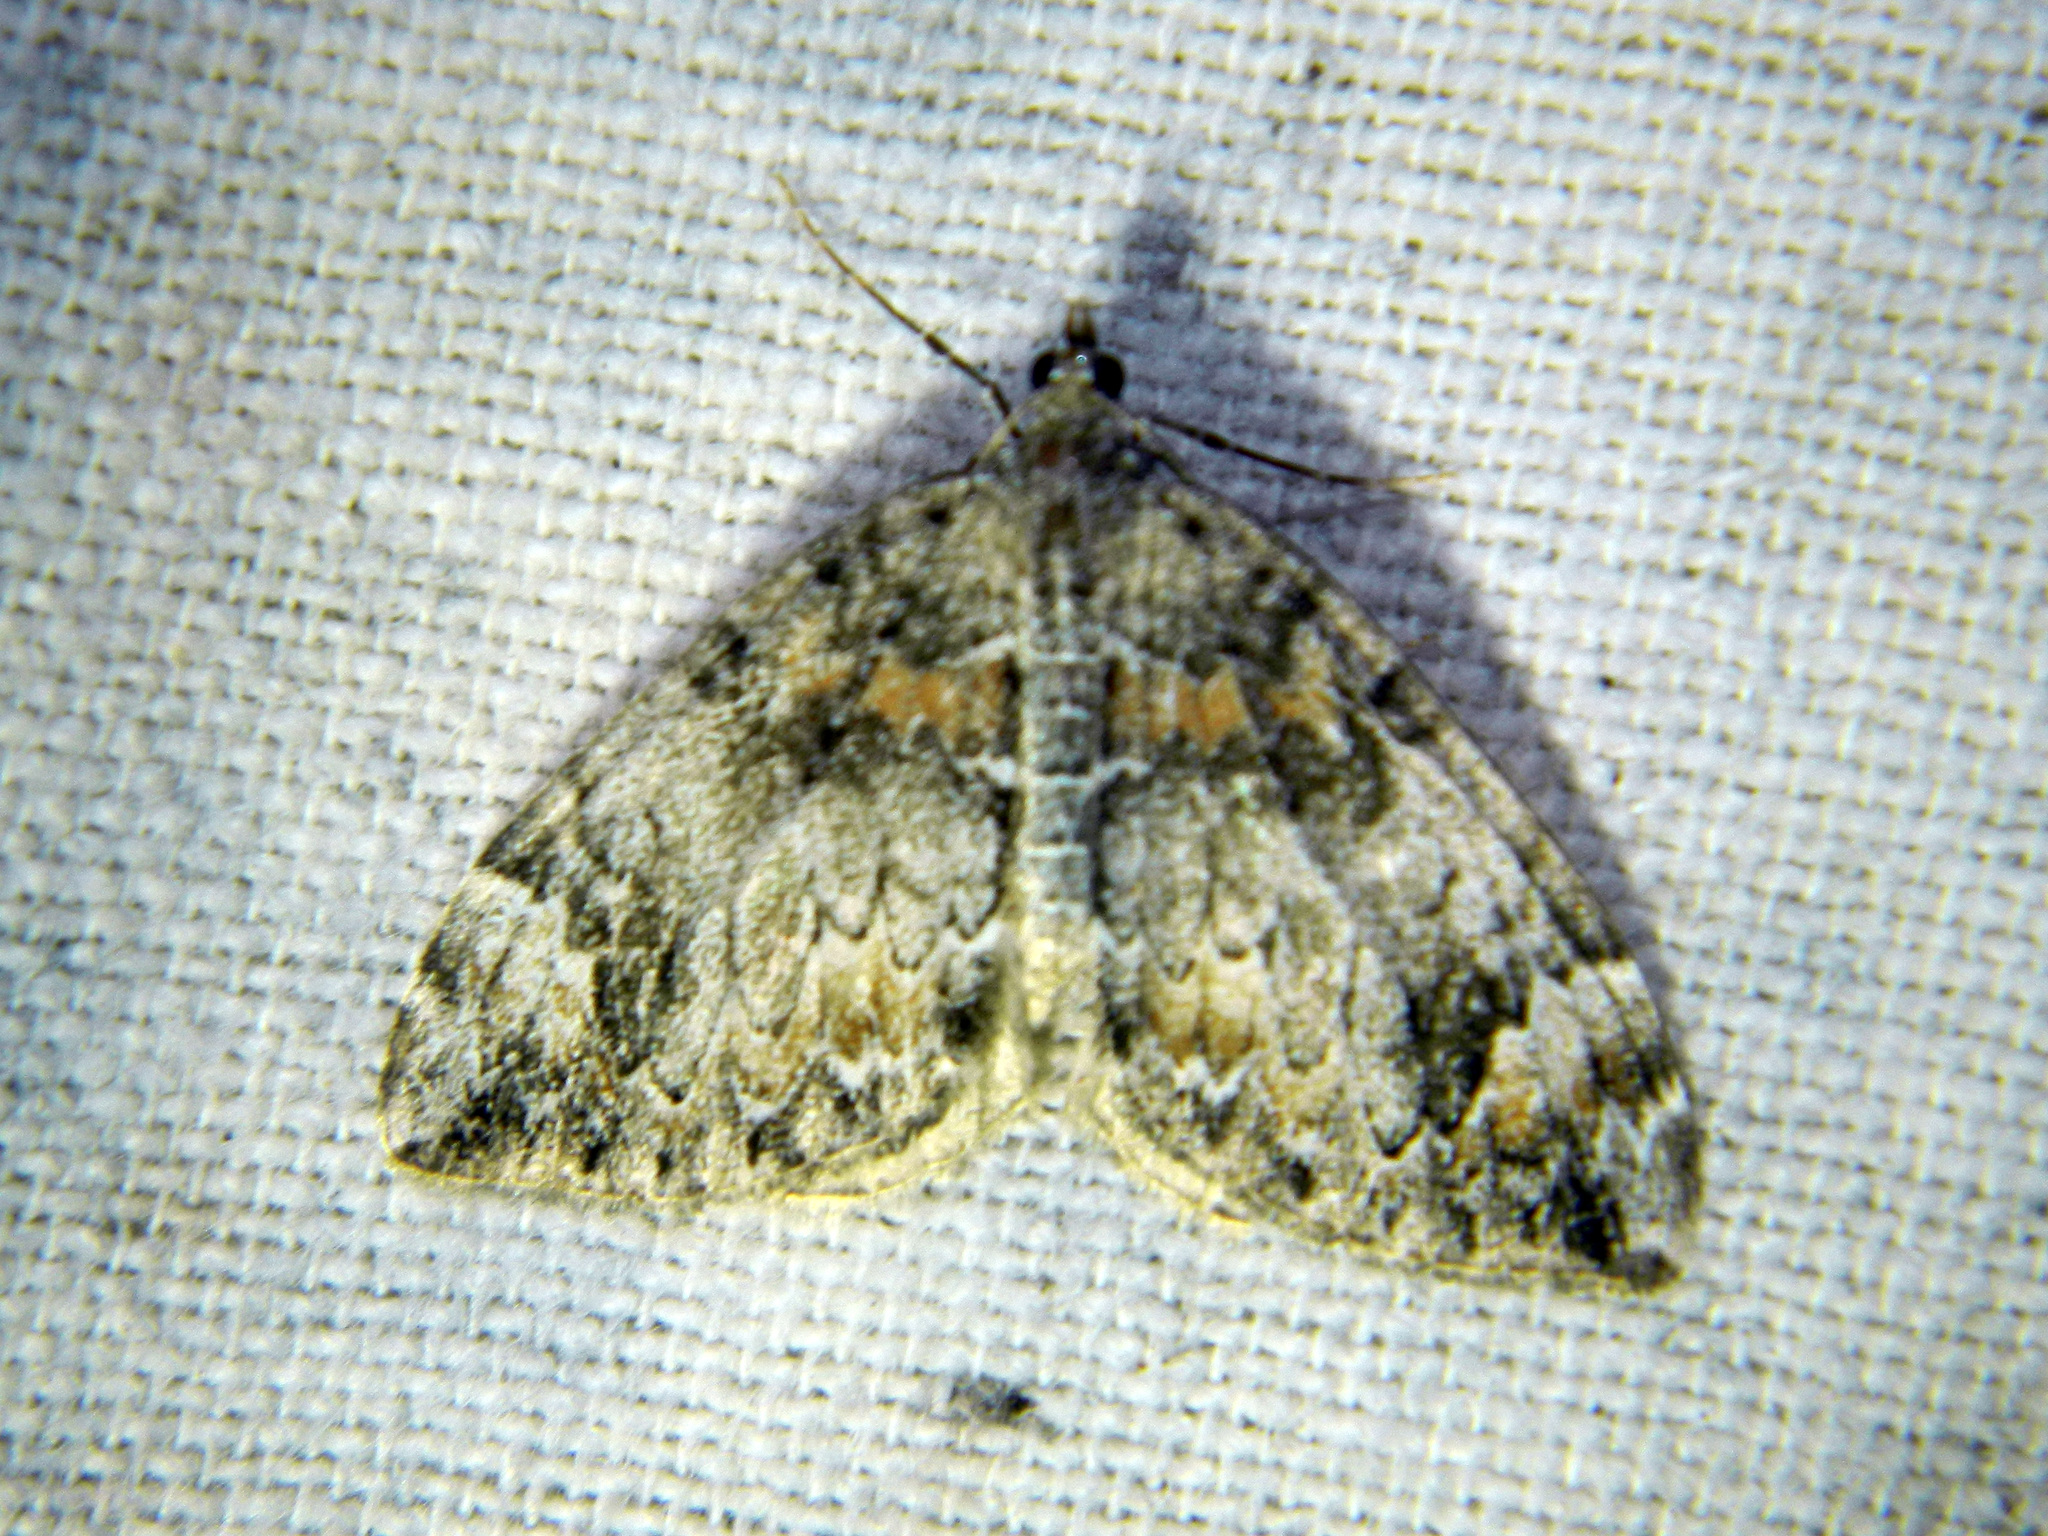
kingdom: Animalia
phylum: Arthropoda
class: Insecta
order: Lepidoptera
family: Geometridae
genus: Dysstroma
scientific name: Dysstroma citrata
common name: Dark marbled carpet
